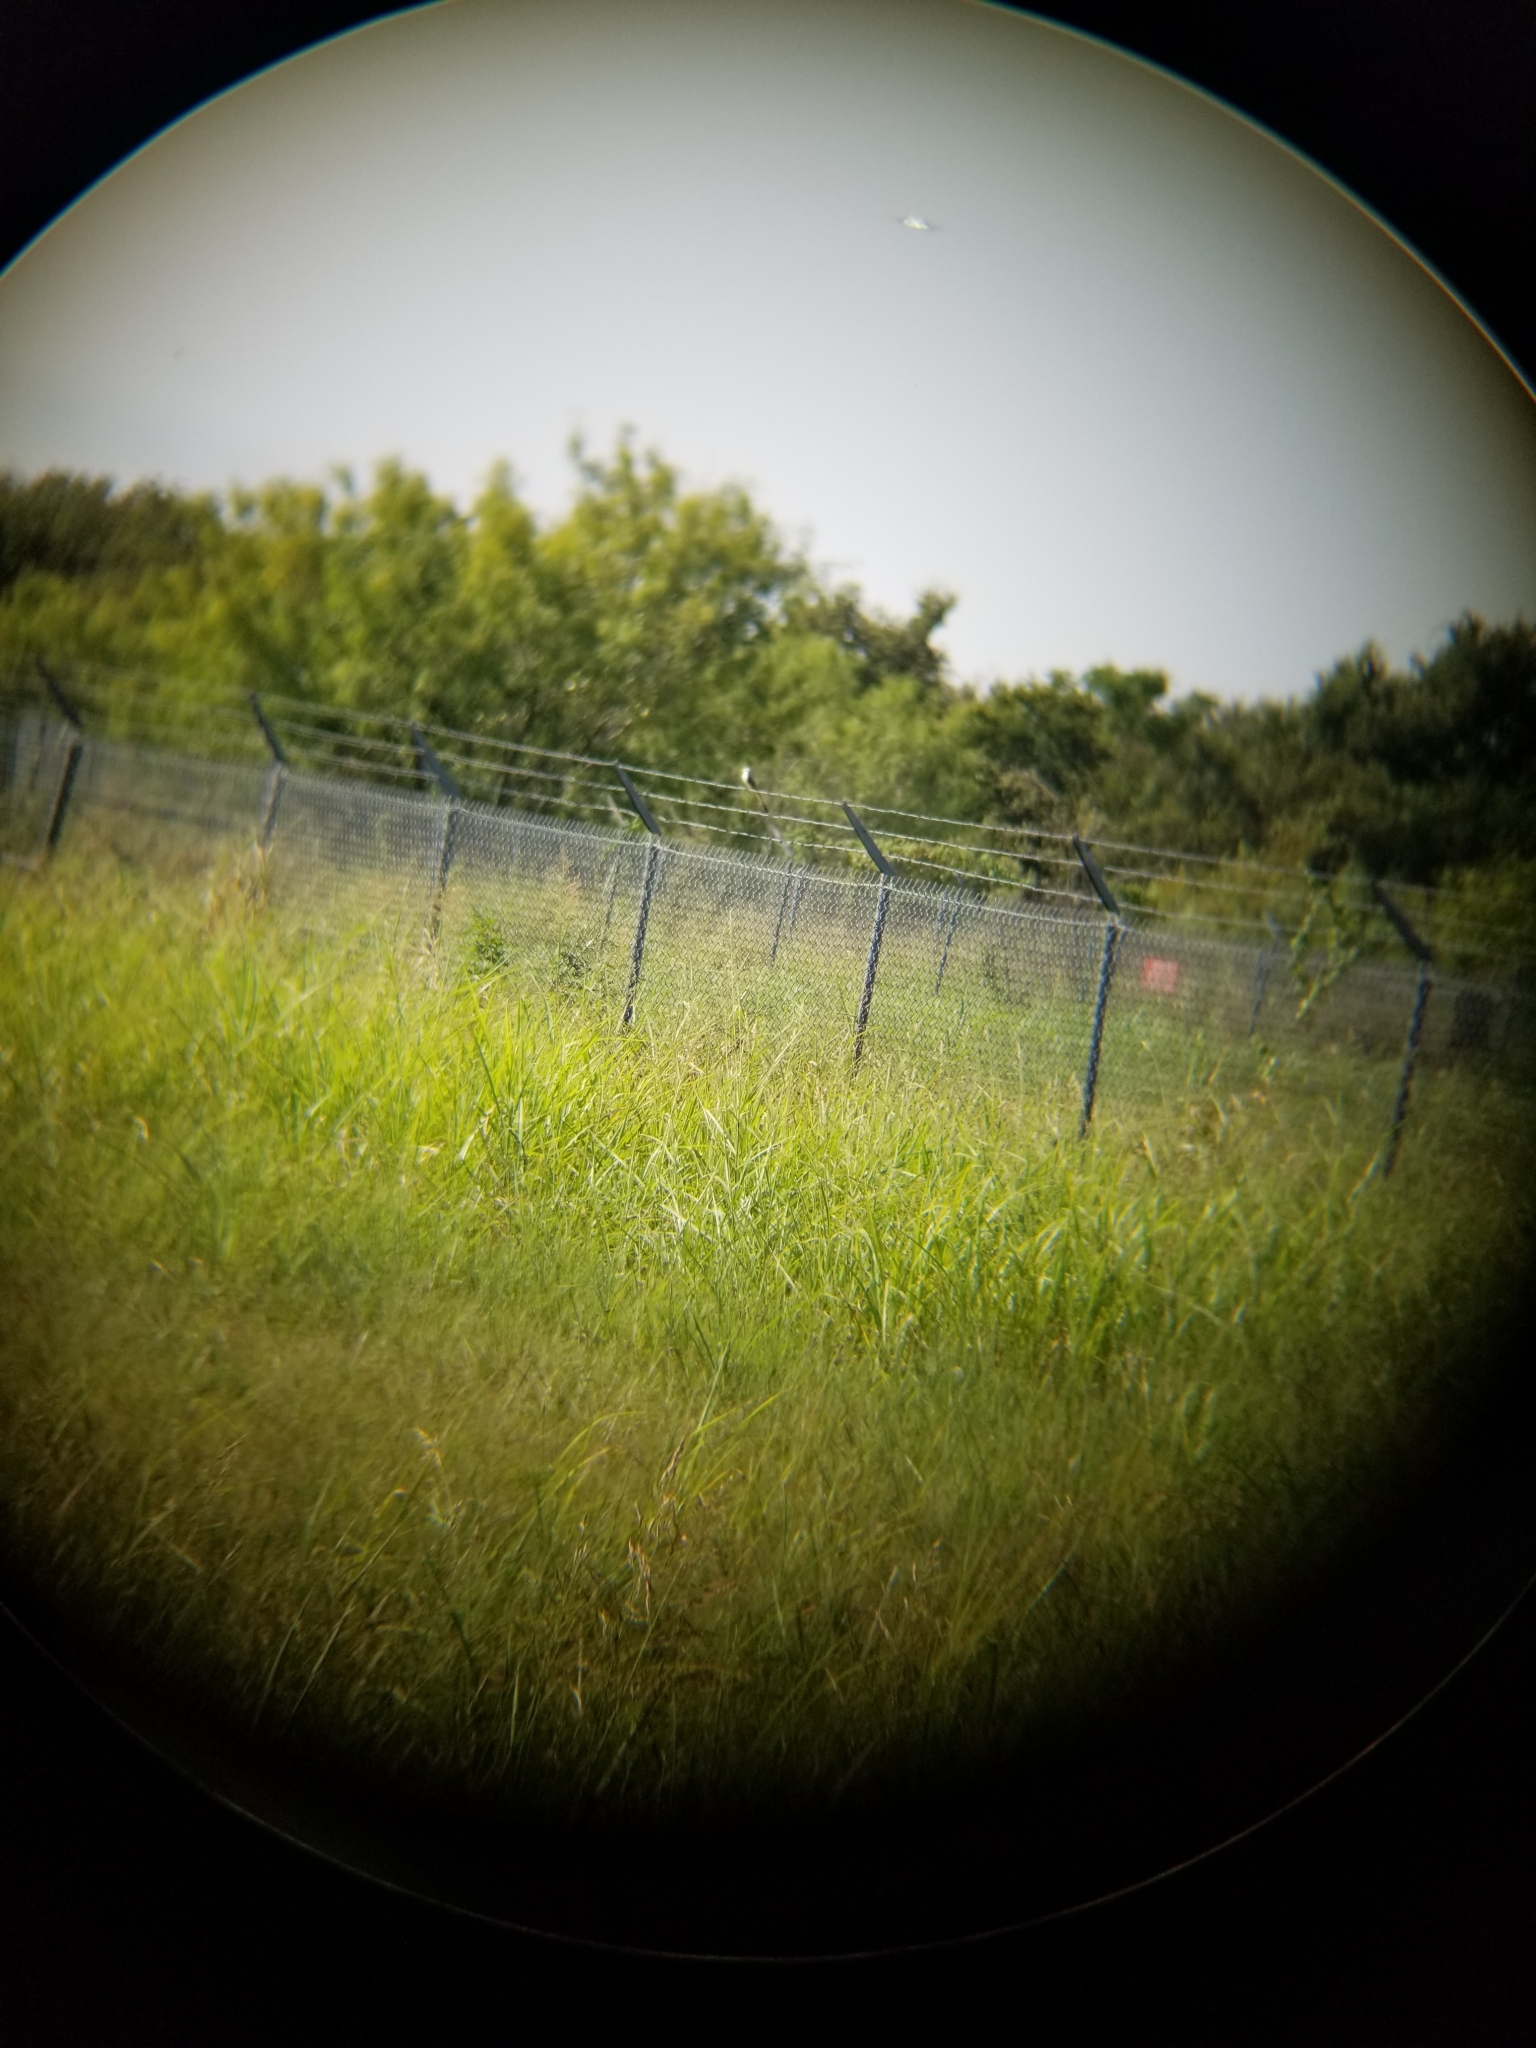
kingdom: Animalia
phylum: Chordata
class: Aves
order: Passeriformes
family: Tyrannidae
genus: Tyrannus
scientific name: Tyrannus forficatus
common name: Scissor-tailed flycatcher
